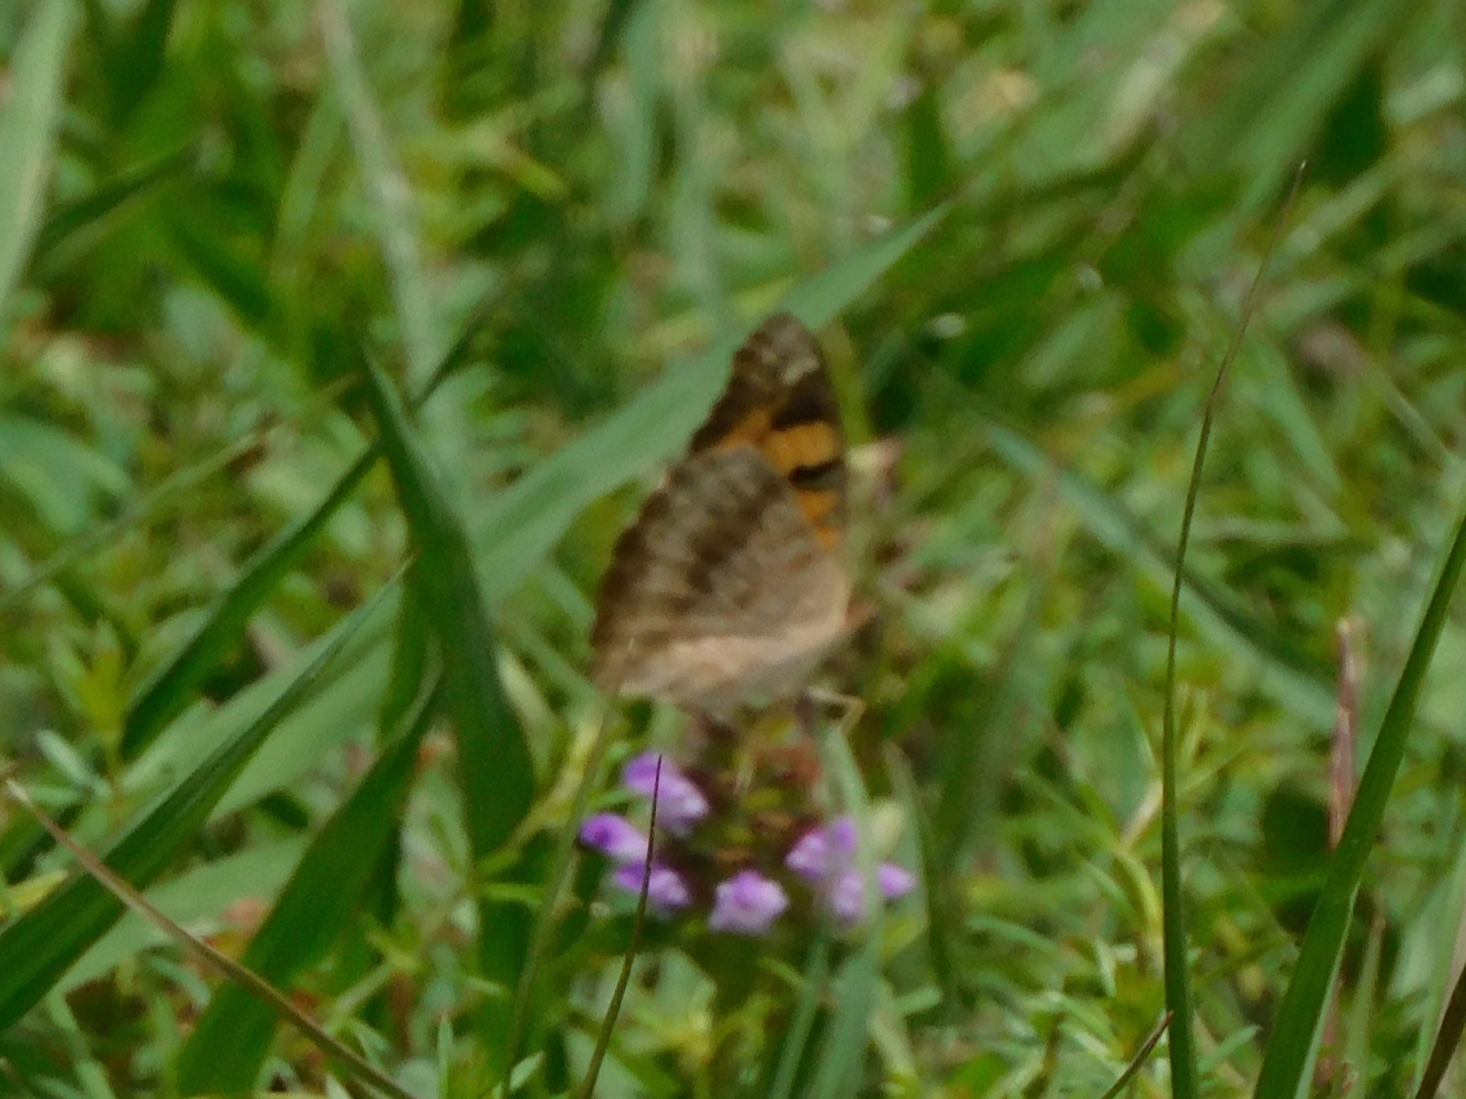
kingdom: Animalia
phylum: Arthropoda
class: Insecta
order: Lepidoptera
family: Nymphalidae
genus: Junonia
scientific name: Junonia hierta
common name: Yellow pansy
